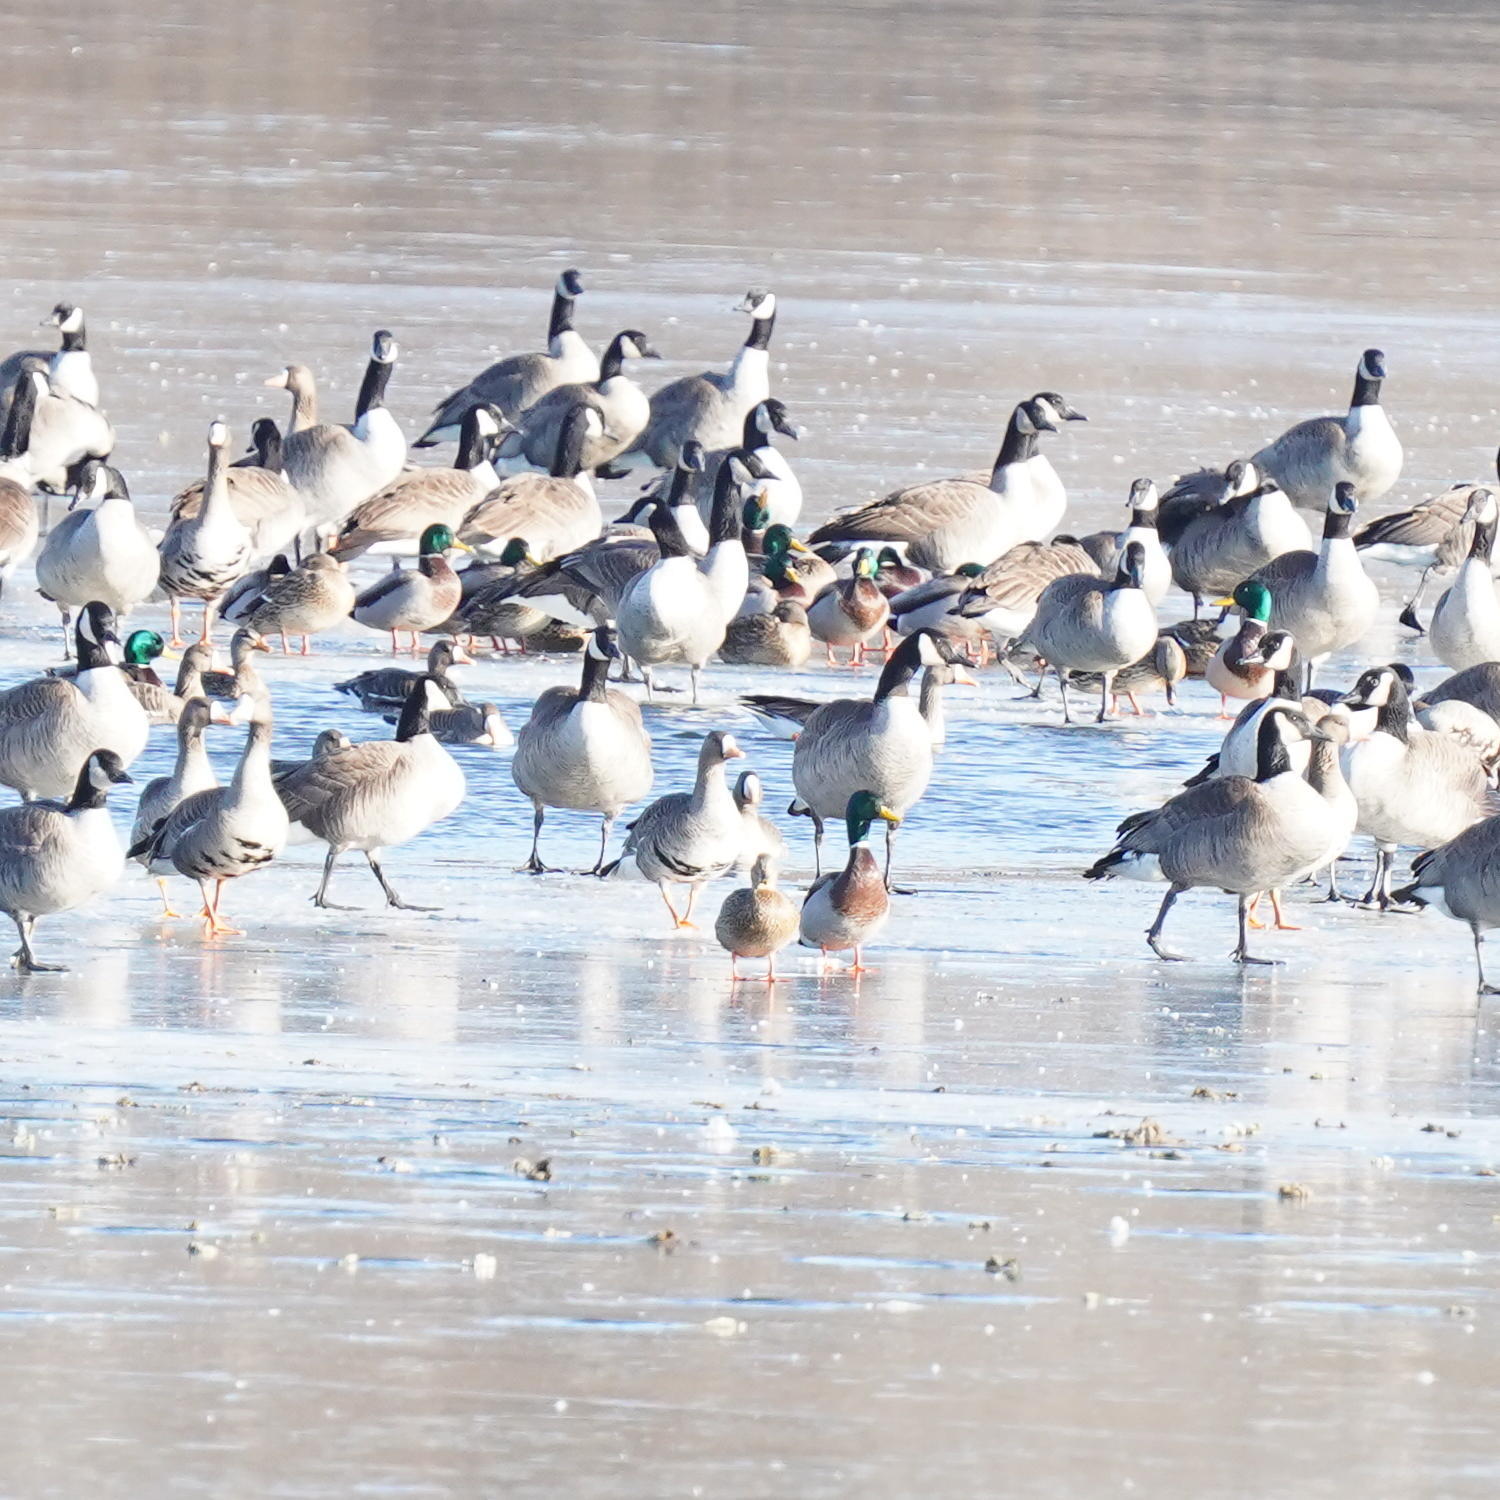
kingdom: Animalia
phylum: Chordata
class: Aves
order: Anseriformes
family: Anatidae
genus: Branta
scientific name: Branta canadensis
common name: Canada goose
